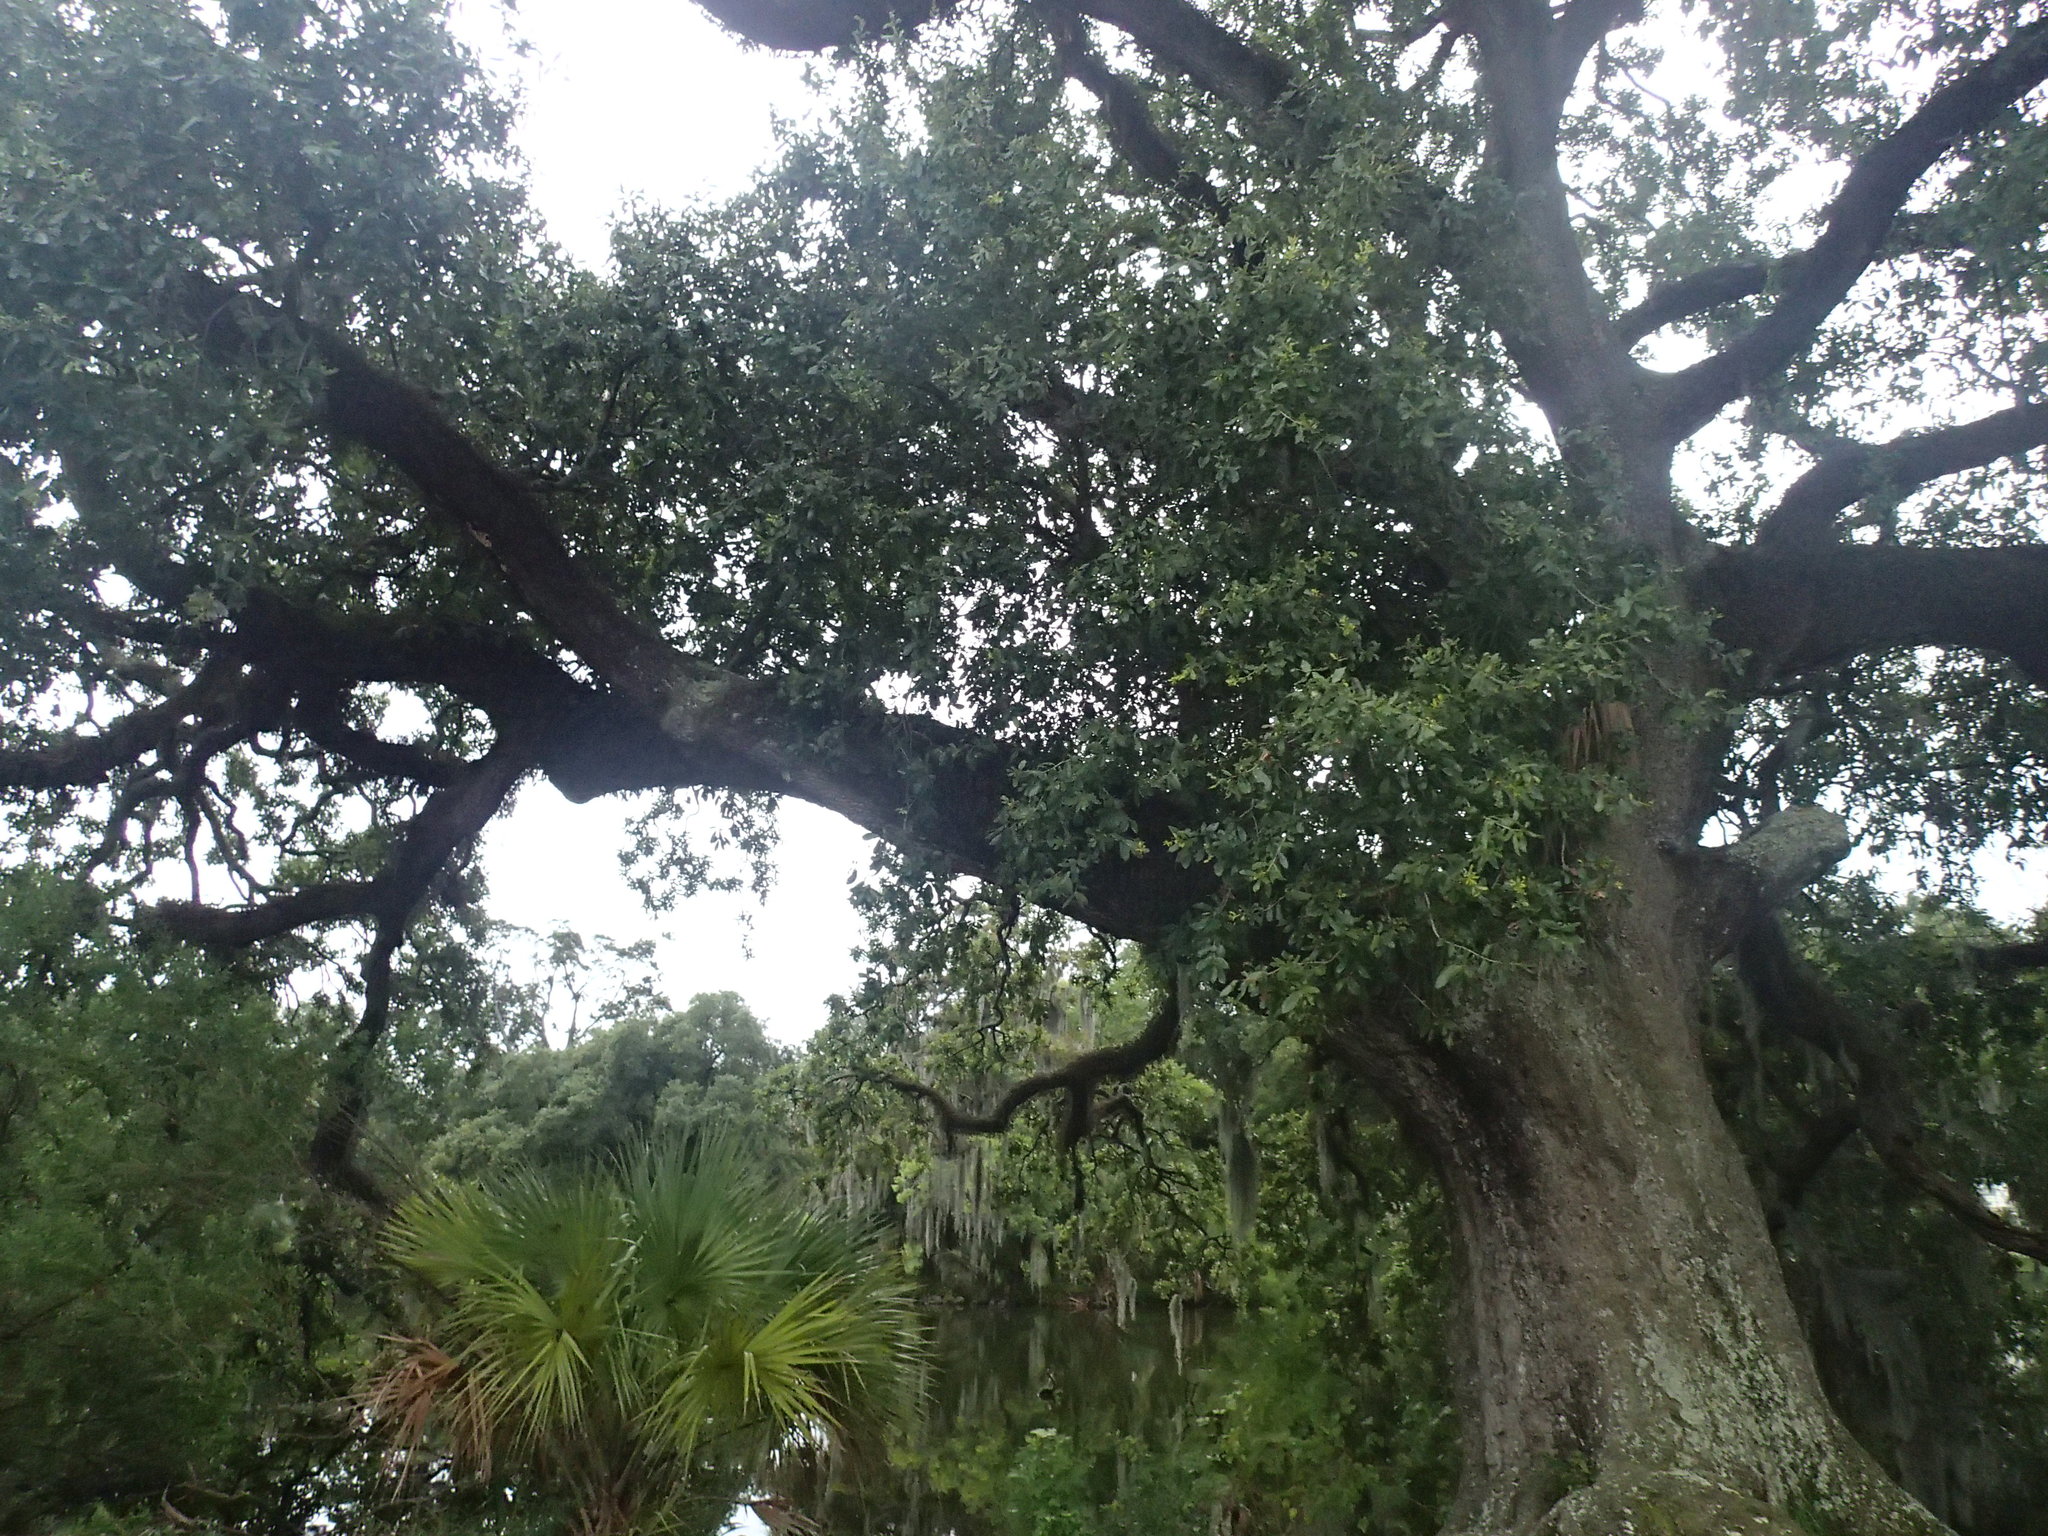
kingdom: Plantae
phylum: Tracheophyta
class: Magnoliopsida
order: Fagales
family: Fagaceae
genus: Quercus
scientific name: Quercus virginiana
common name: Southern live oak
